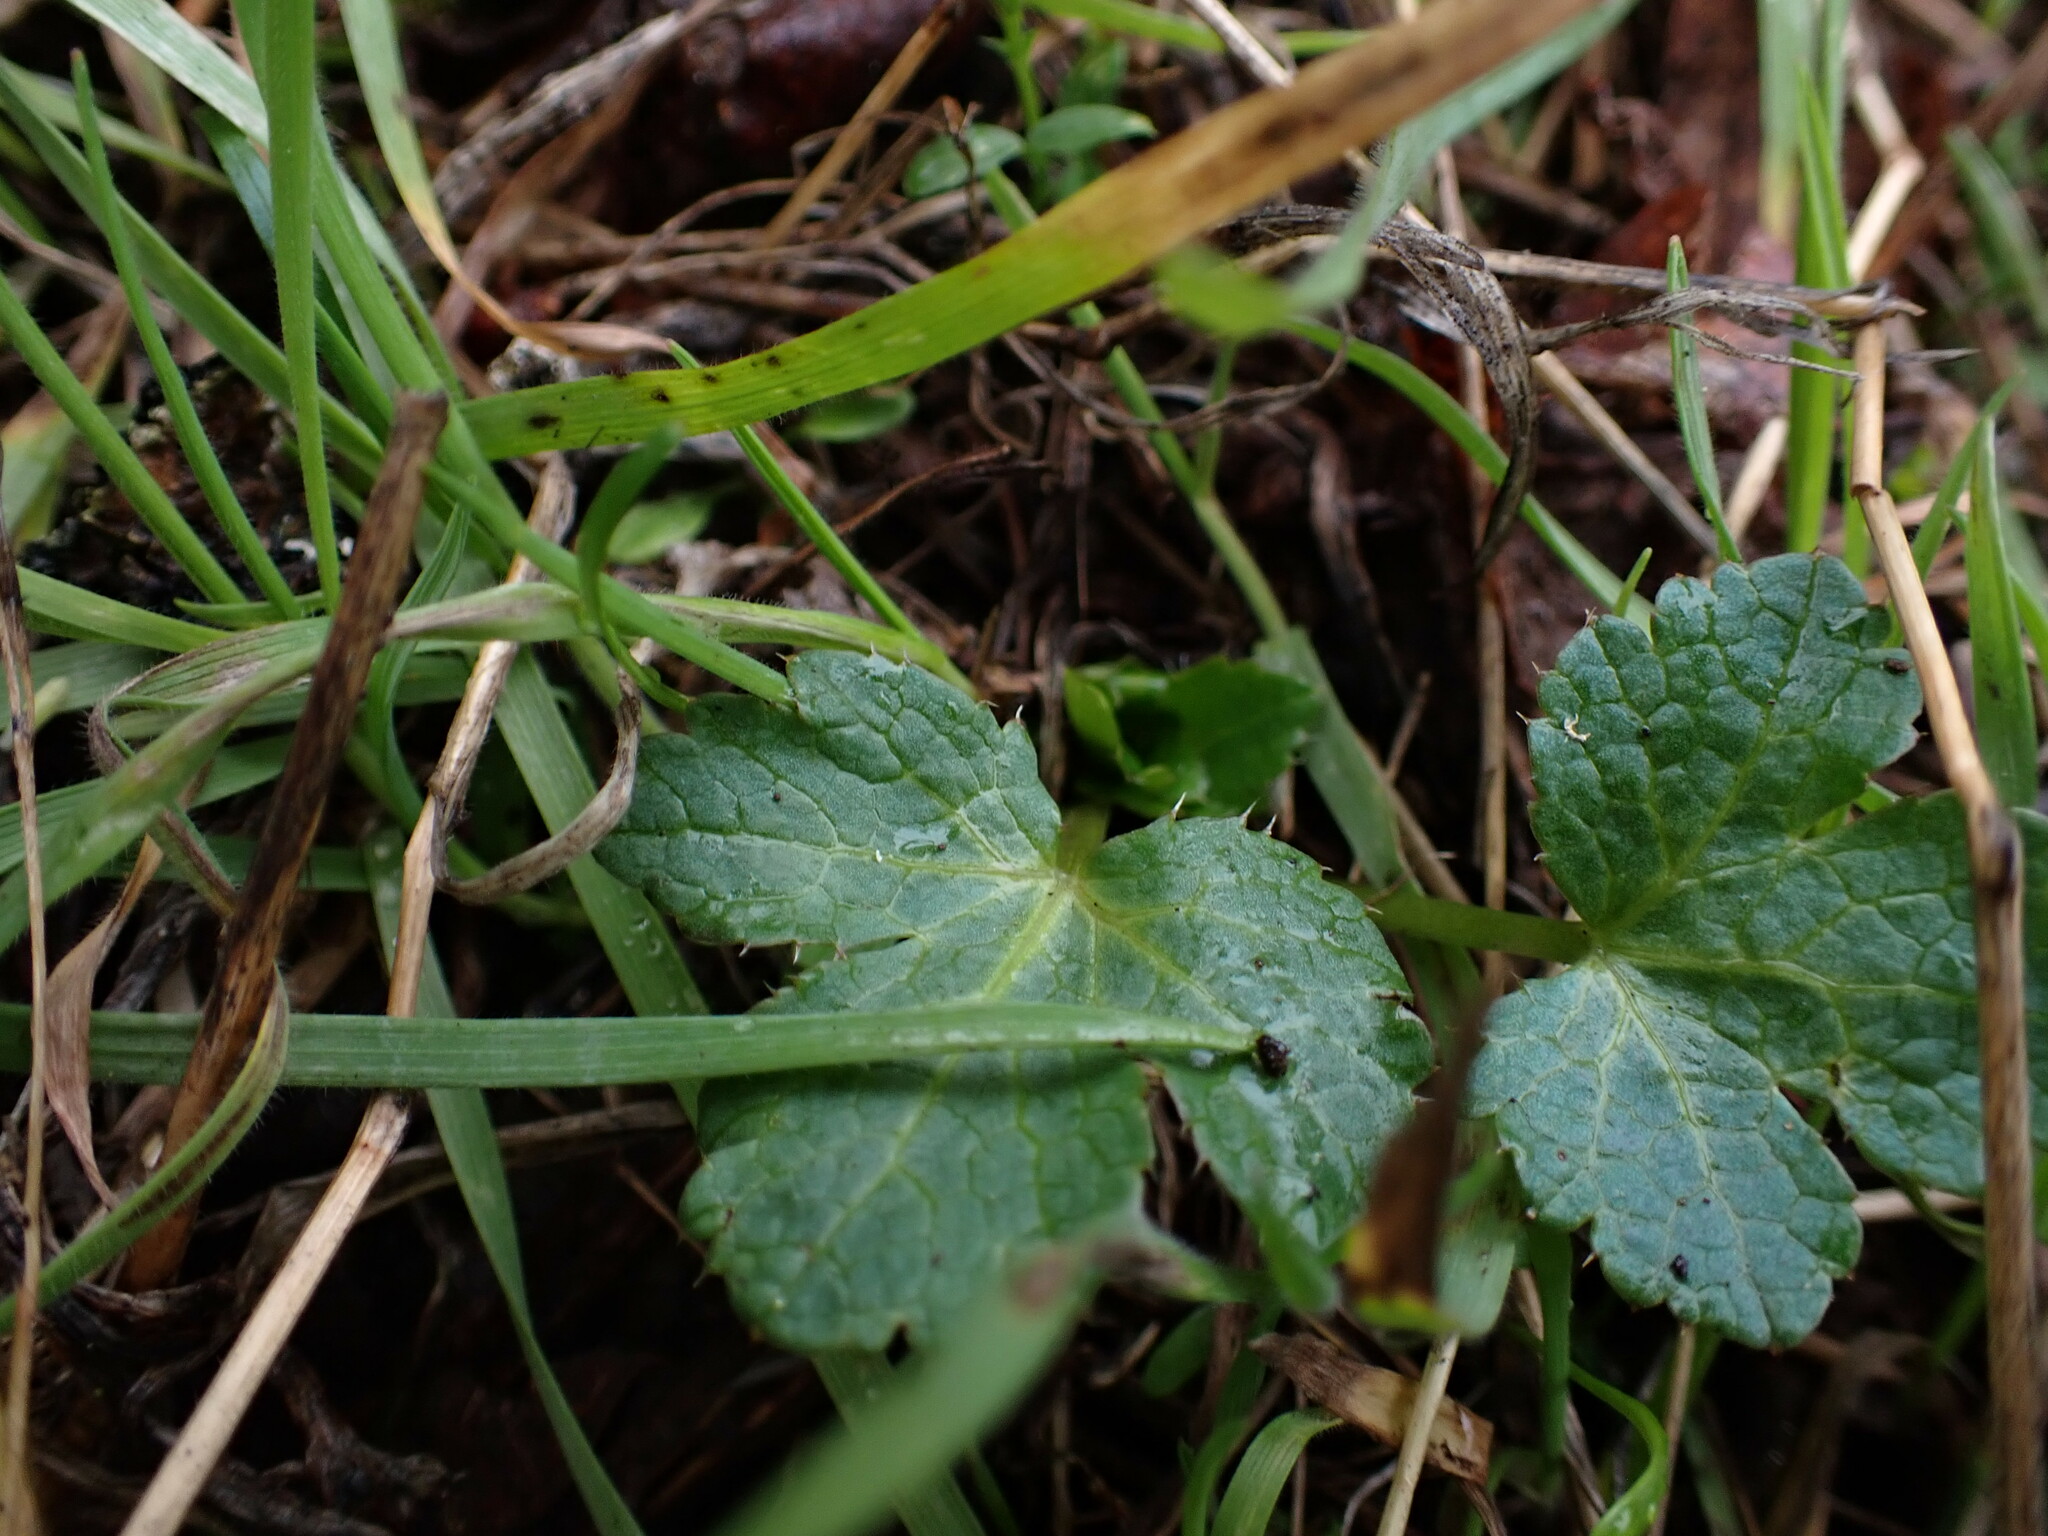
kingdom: Plantae
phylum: Tracheophyta
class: Magnoliopsida
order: Apiales
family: Apiaceae
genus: Sanicula
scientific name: Sanicula crassicaulis
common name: Western snakeroot
